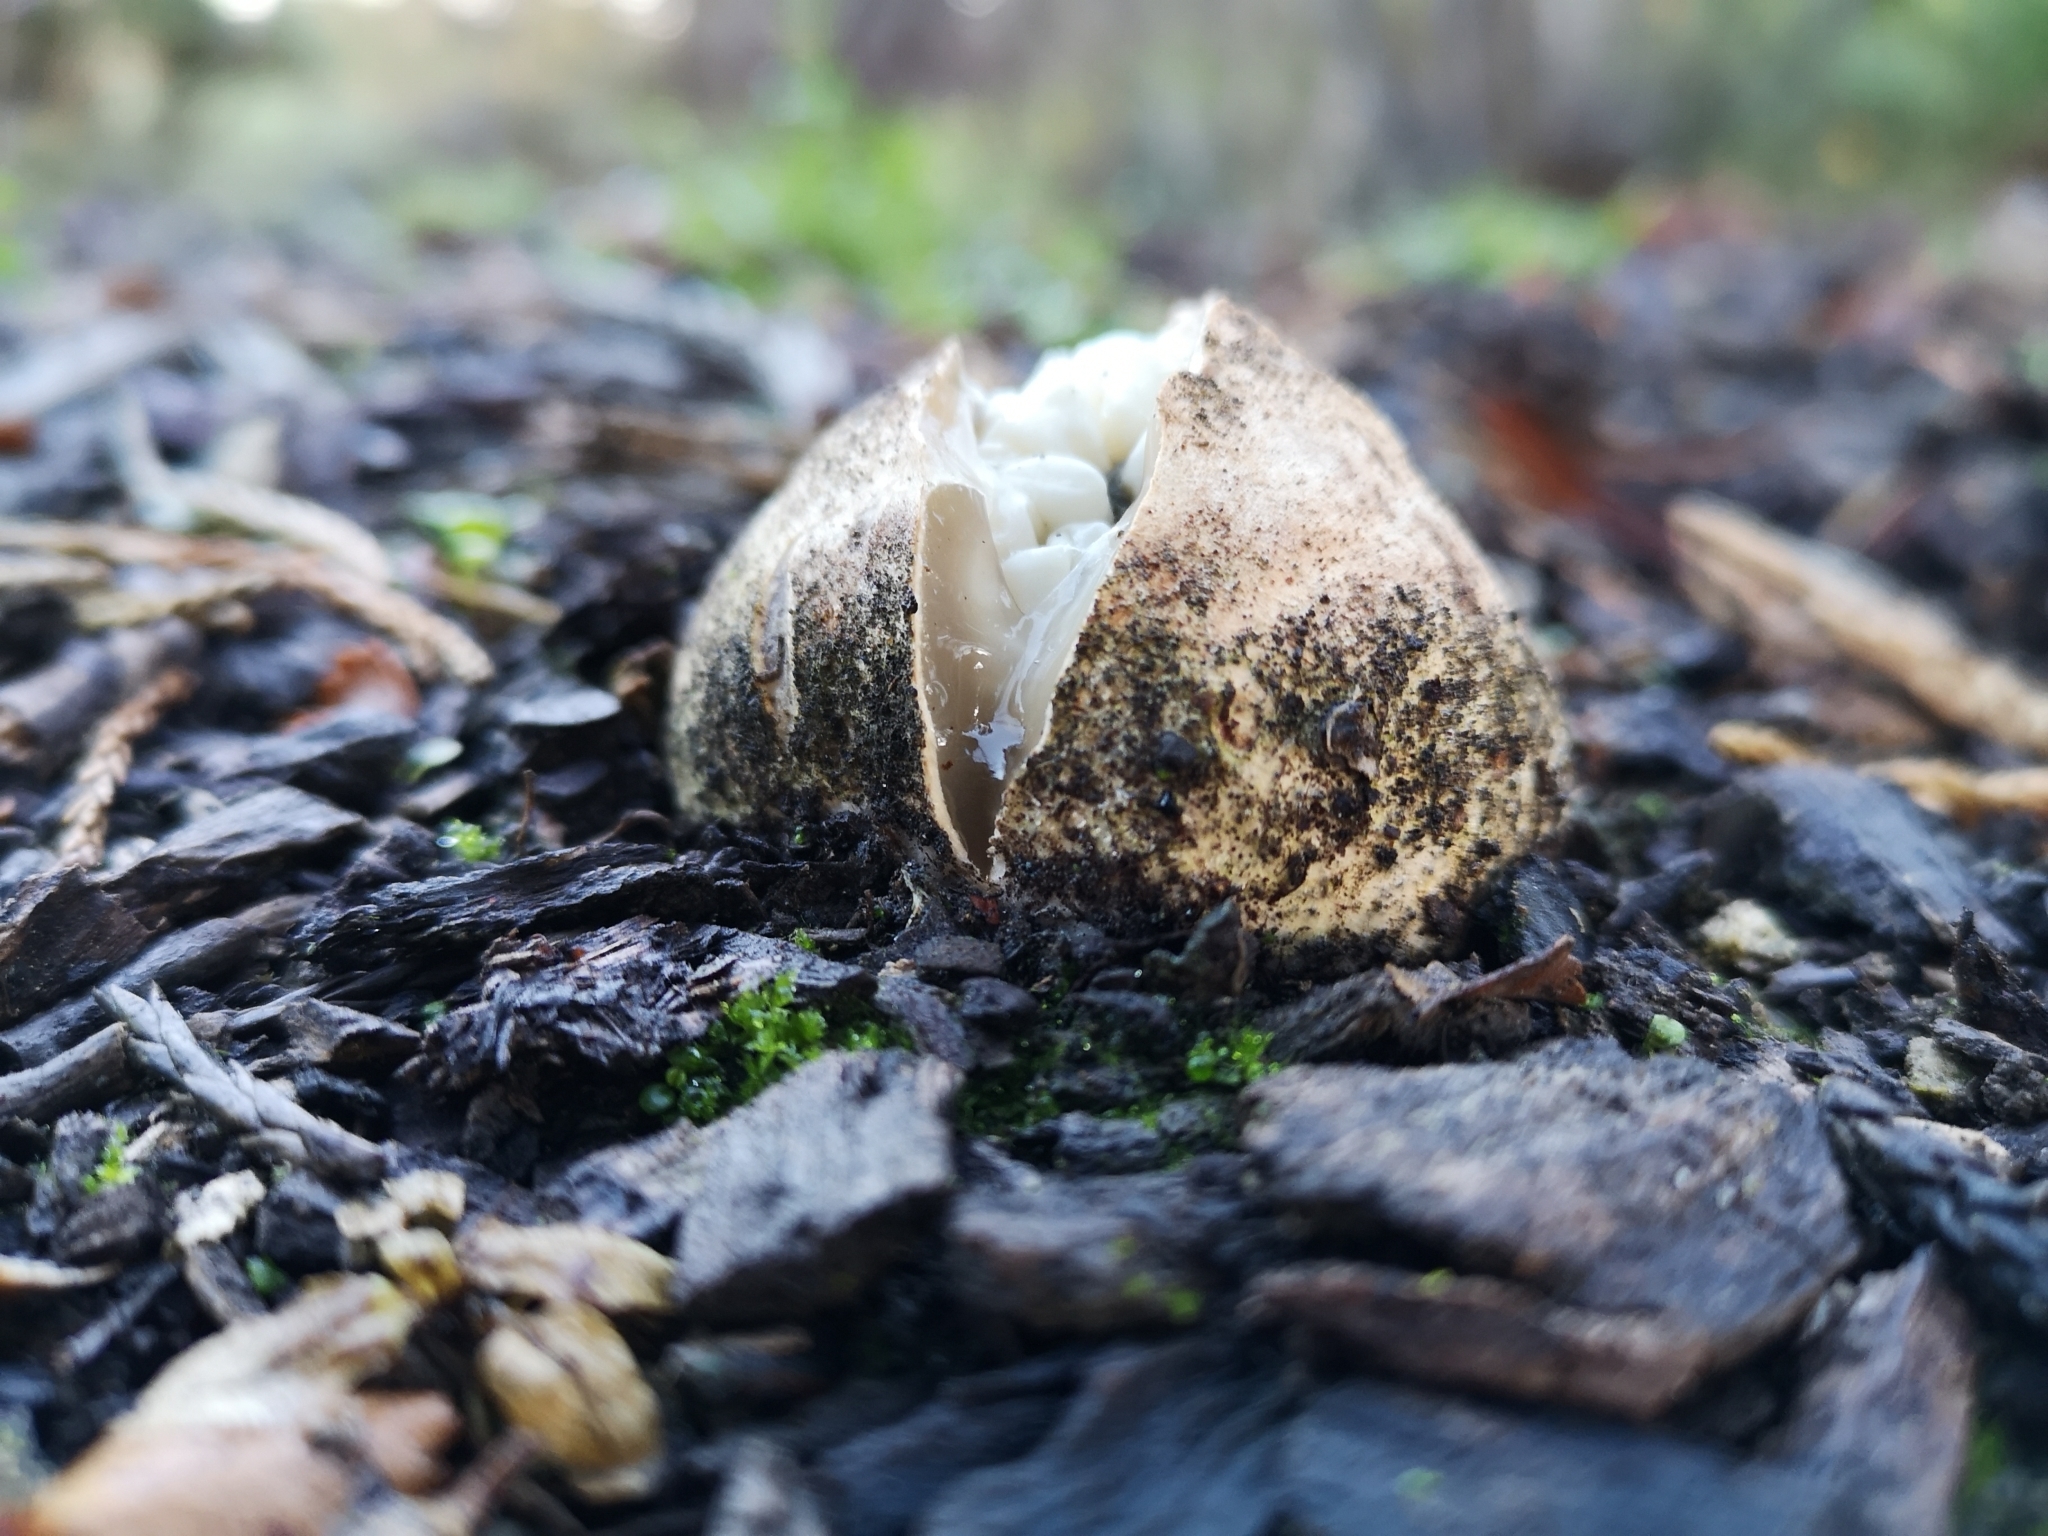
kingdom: Fungi
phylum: Basidiomycota
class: Agaricomycetes
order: Phallales
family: Phallaceae
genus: Ileodictyon
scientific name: Ileodictyon cibarium
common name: Basket fungus
